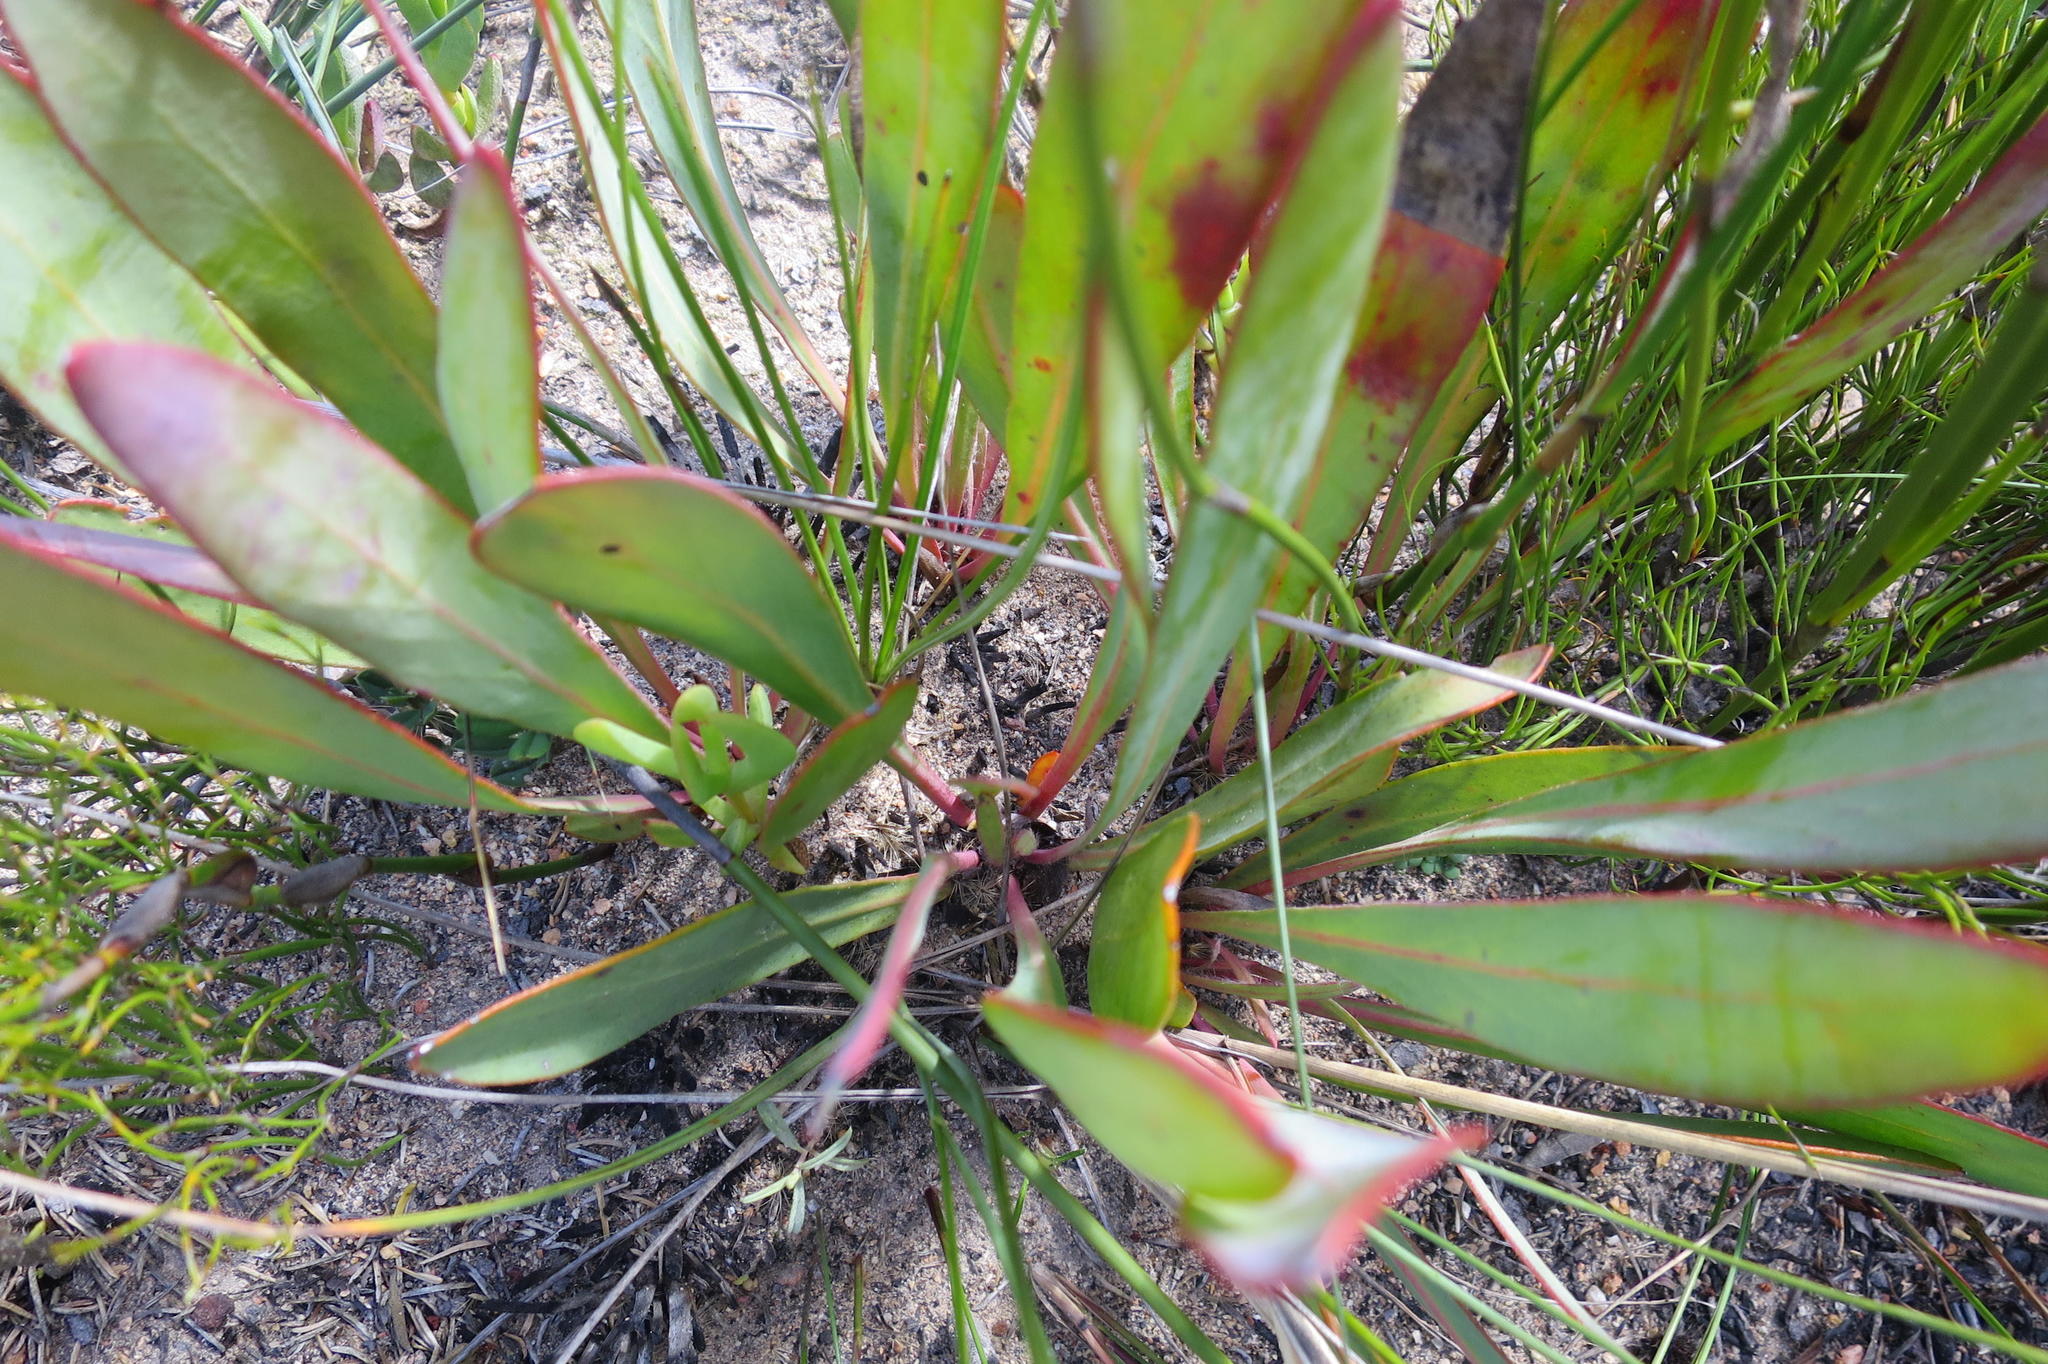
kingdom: Plantae
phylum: Tracheophyta
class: Magnoliopsida
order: Proteales
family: Proteaceae
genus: Protea
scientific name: Protea vogtsiae
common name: Kouga sugarbush
